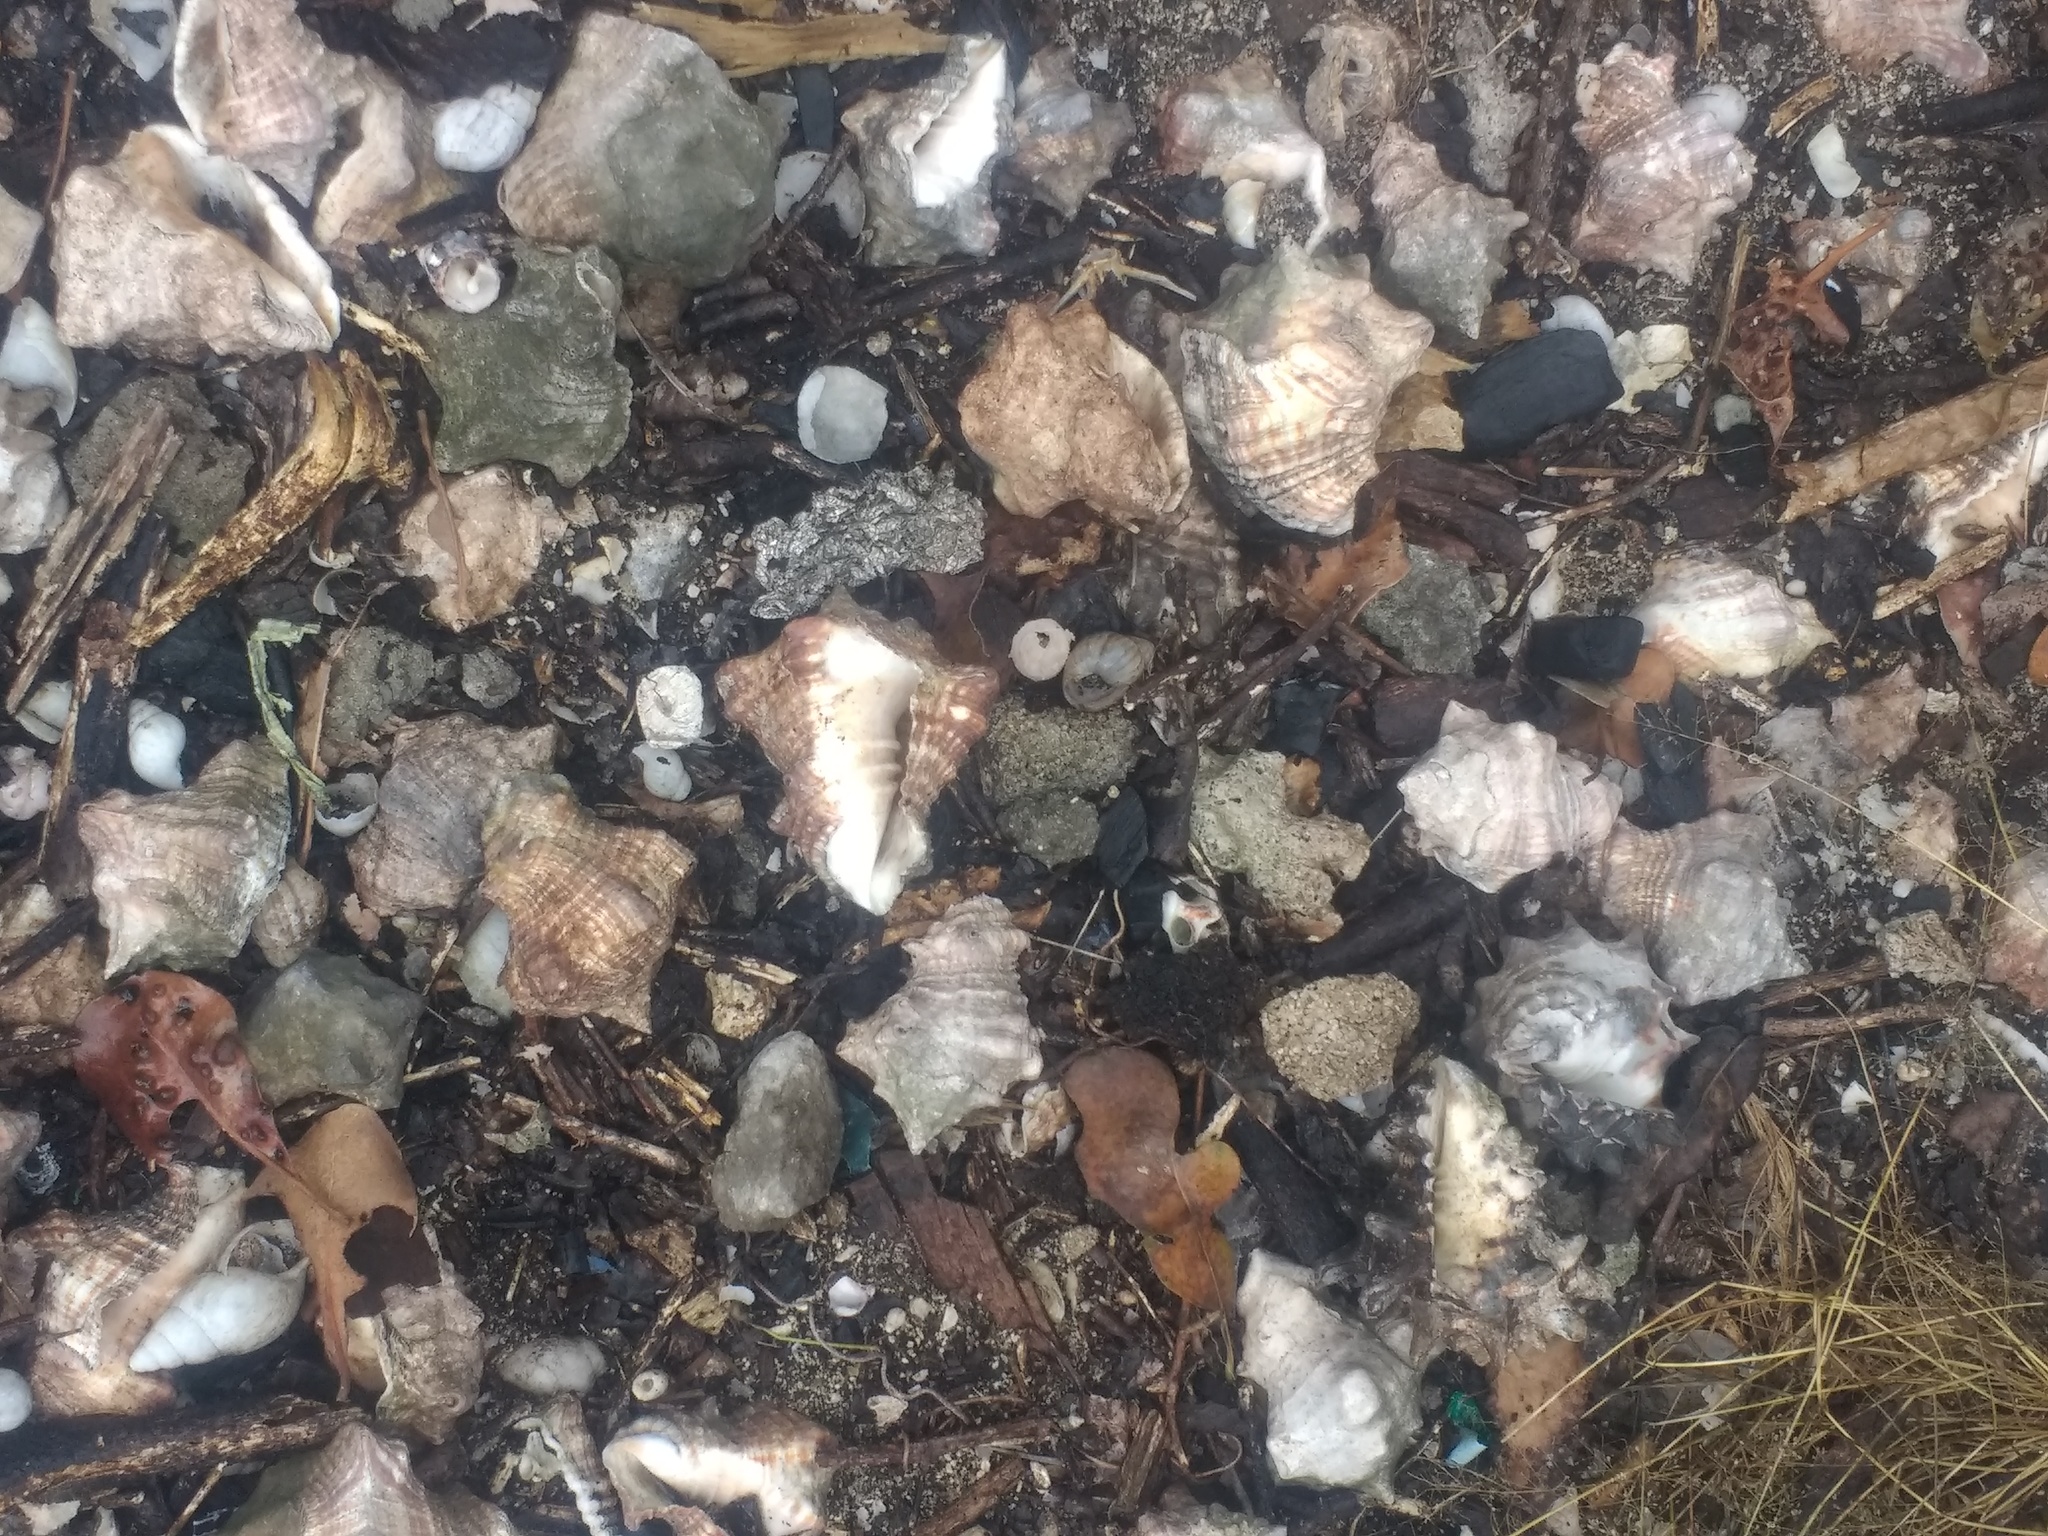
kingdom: Animalia
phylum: Mollusca
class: Gastropoda
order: Neogastropoda
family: Turbinellidae
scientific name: Turbinellidae
